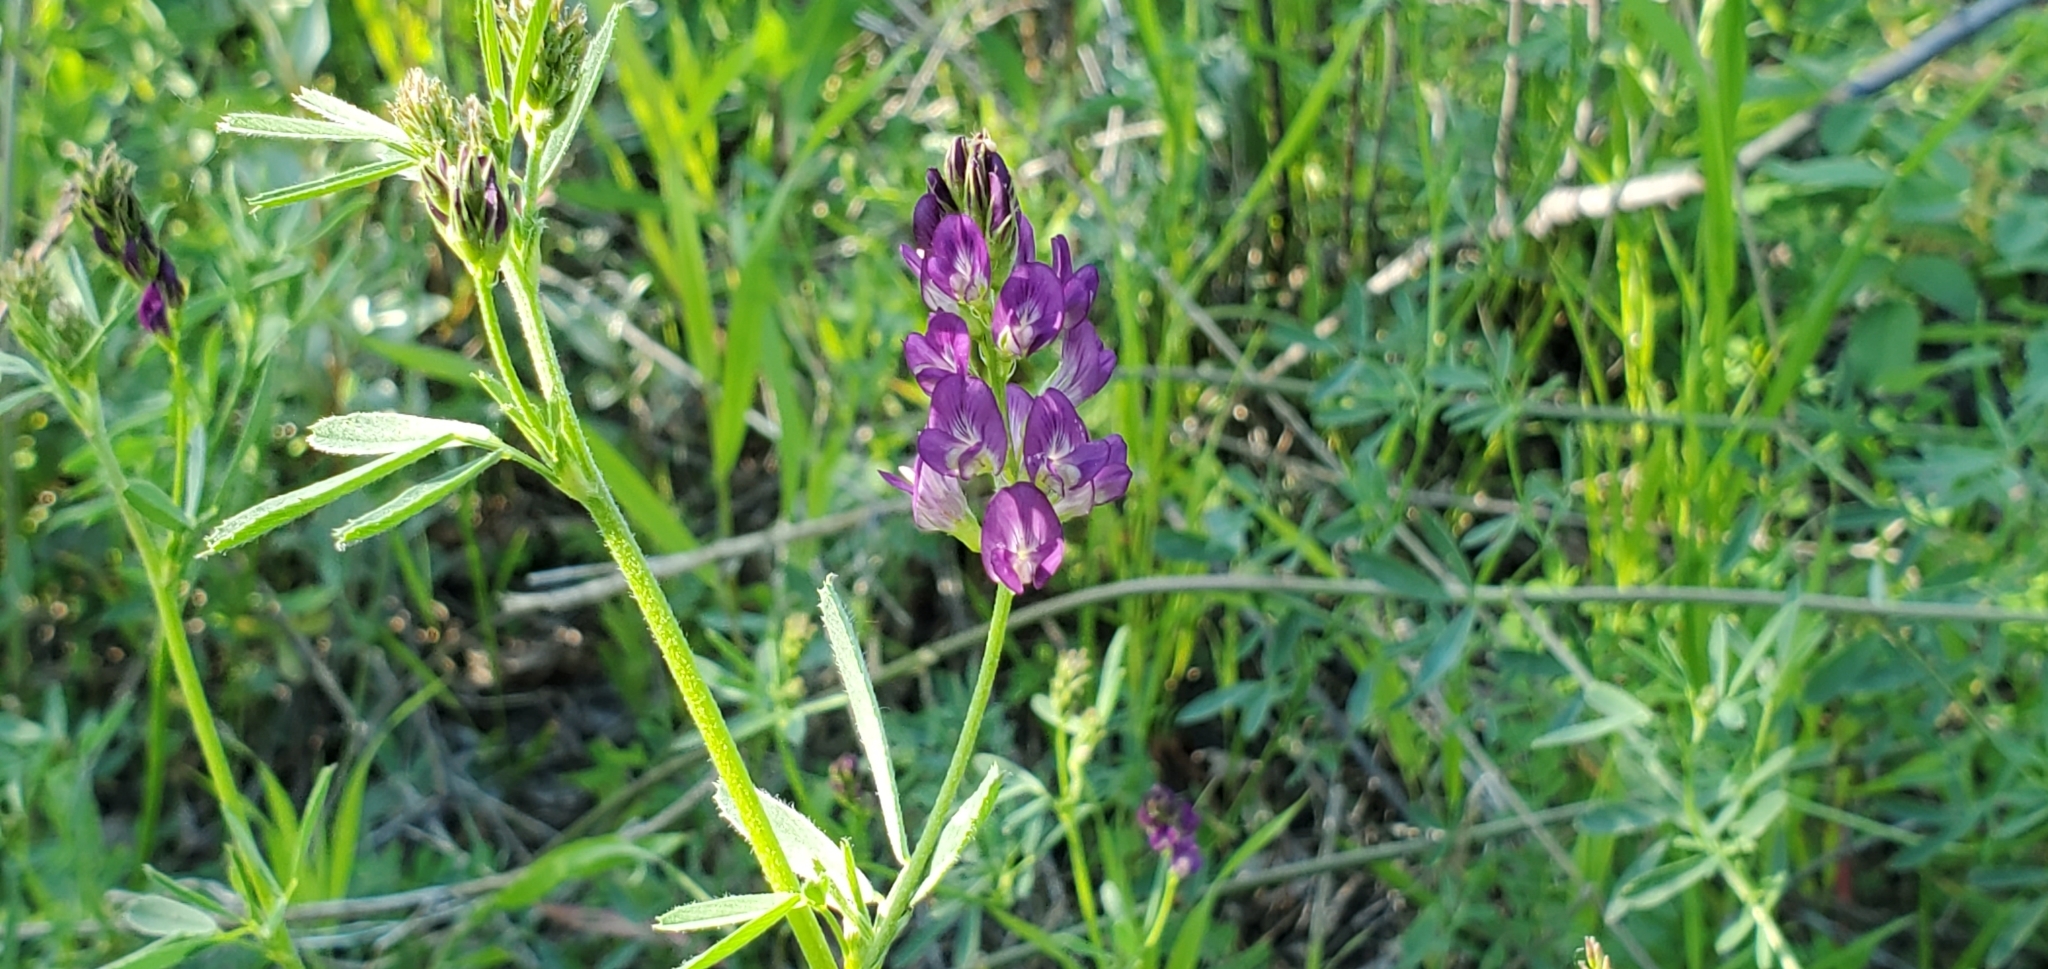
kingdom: Plantae
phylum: Tracheophyta
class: Magnoliopsida
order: Fabales
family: Fabaceae
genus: Medicago
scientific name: Medicago sativa
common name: Alfalfa
